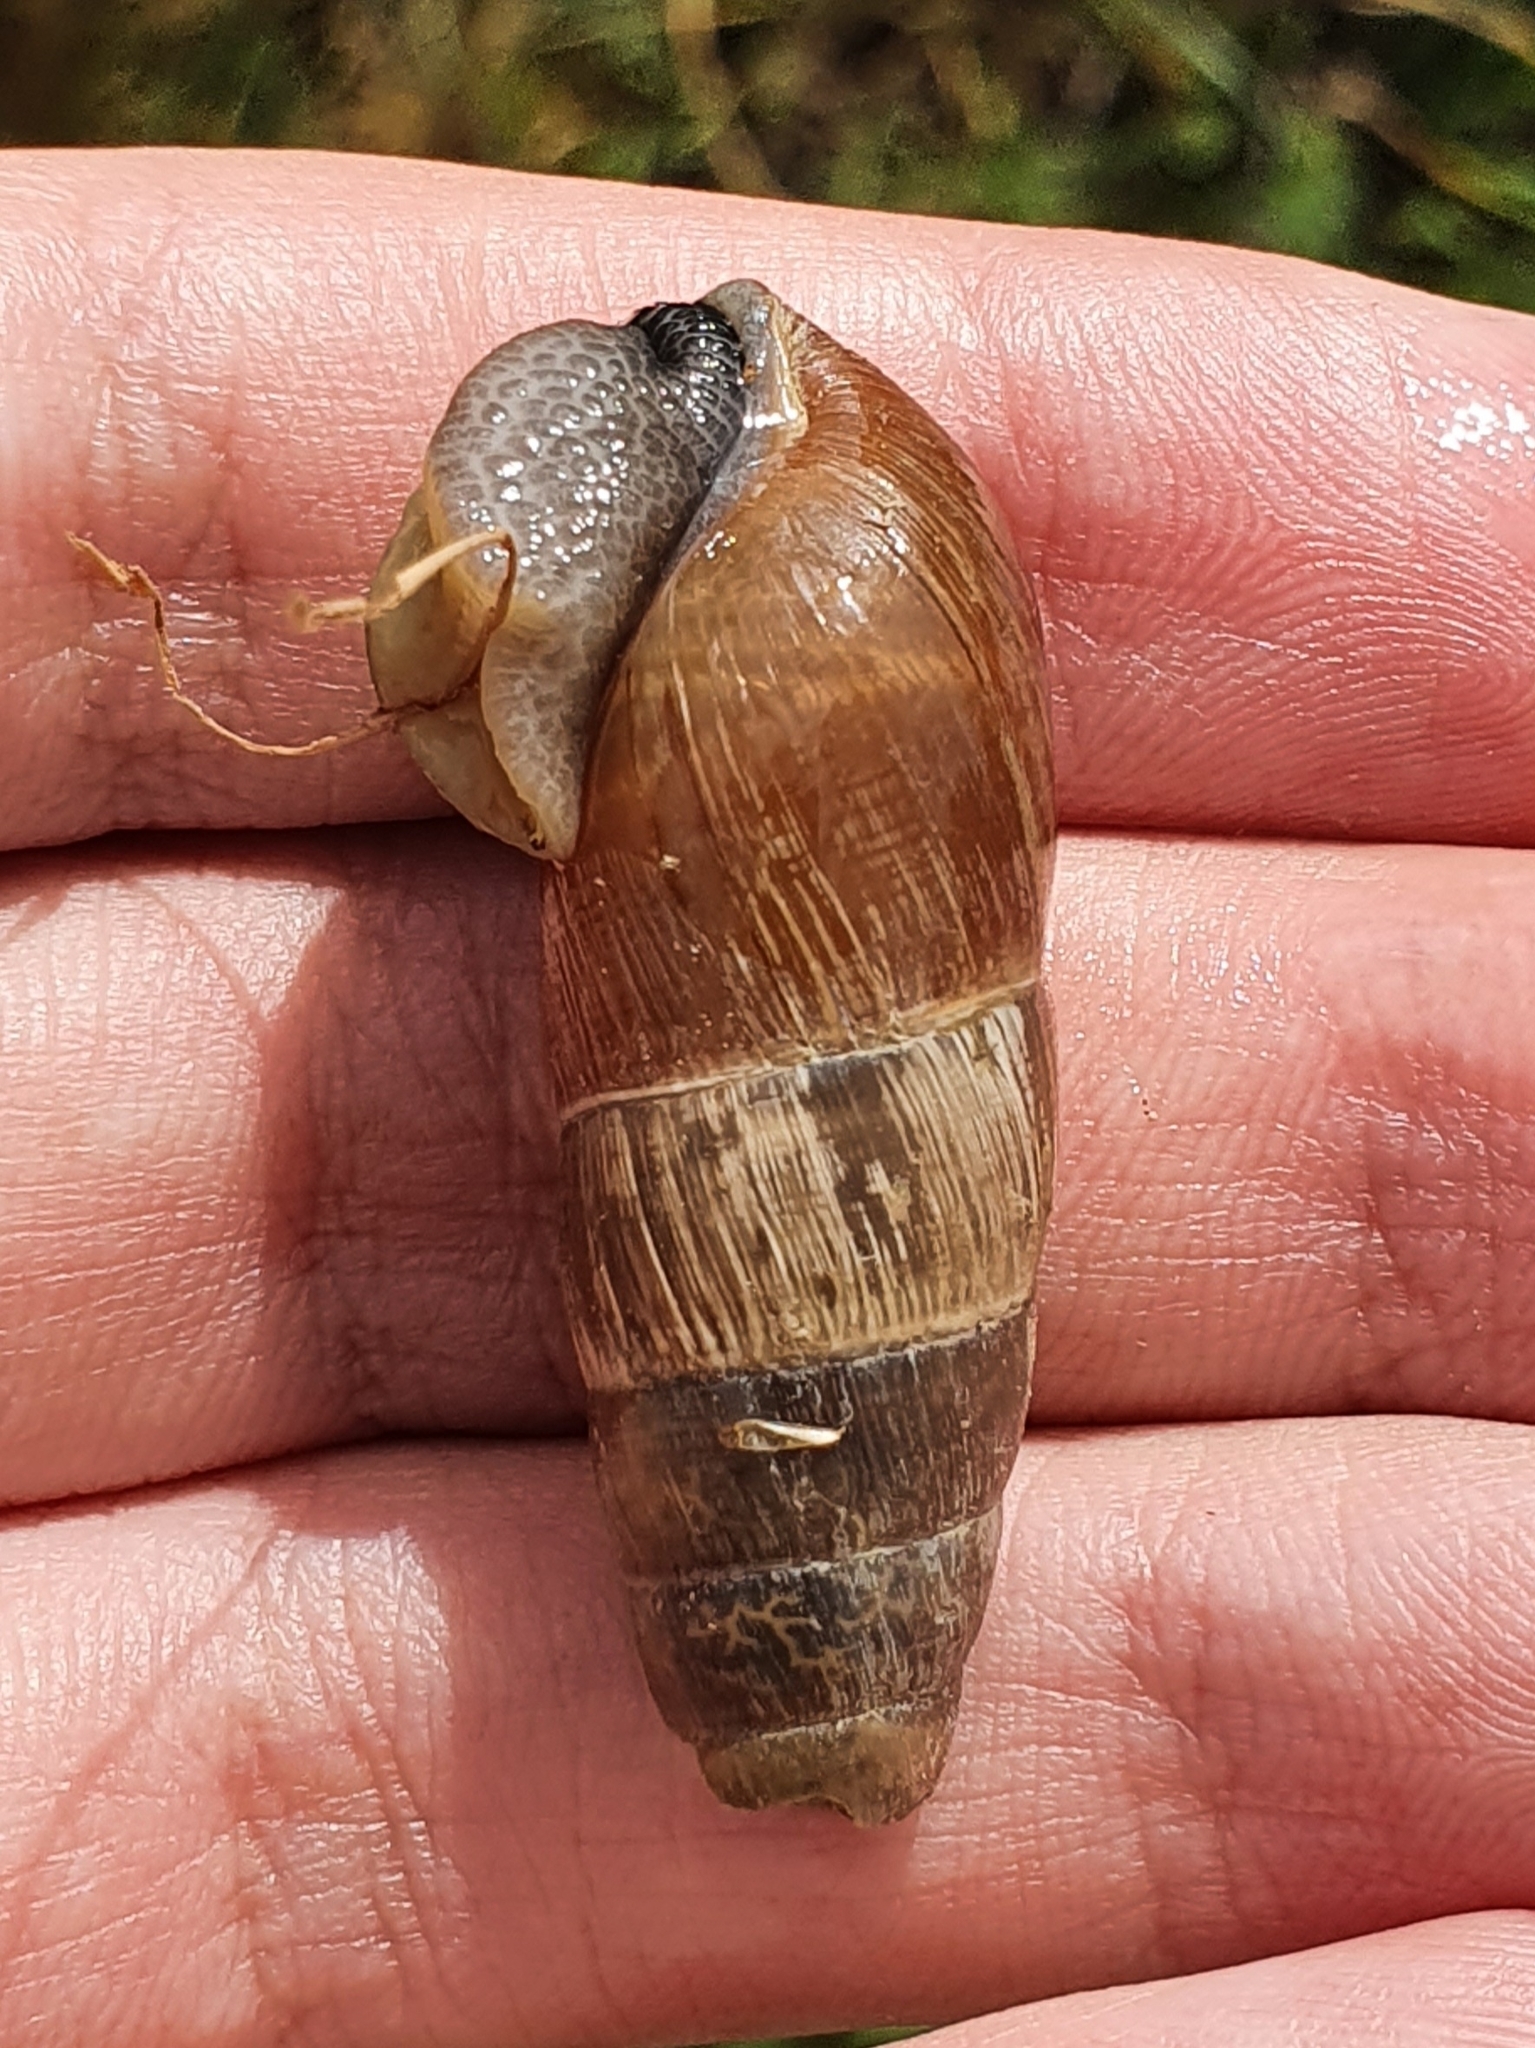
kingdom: Animalia
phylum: Mollusca
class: Gastropoda
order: Stylommatophora
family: Achatinidae
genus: Rumina
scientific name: Rumina decollata
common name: Decollate snail
